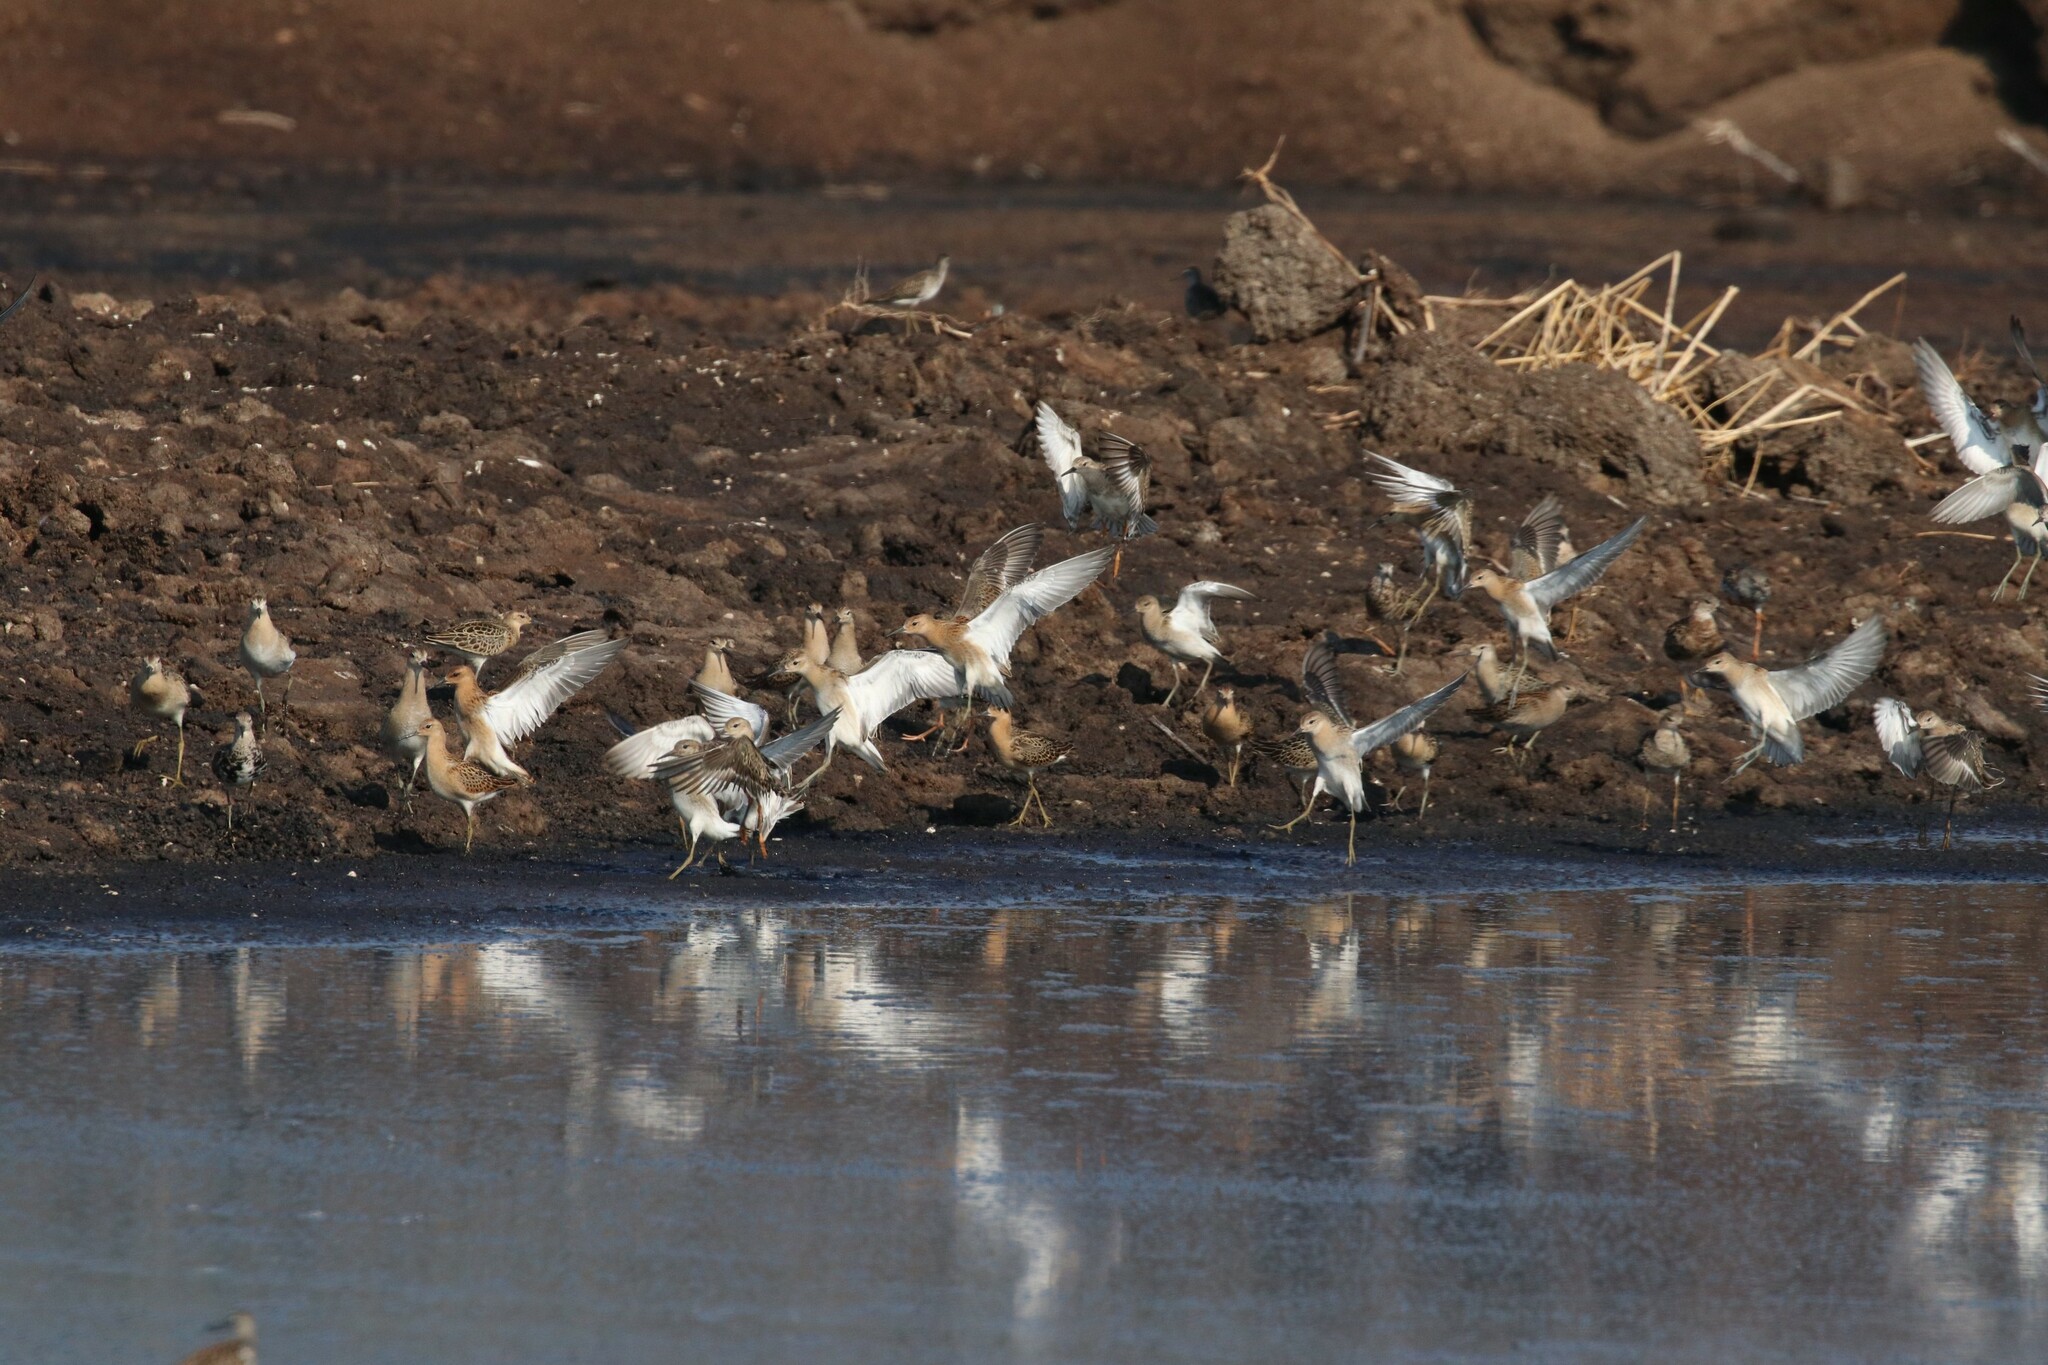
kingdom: Animalia
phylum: Chordata
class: Aves
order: Charadriiformes
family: Scolopacidae
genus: Calidris
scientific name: Calidris pugnax
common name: Ruff
